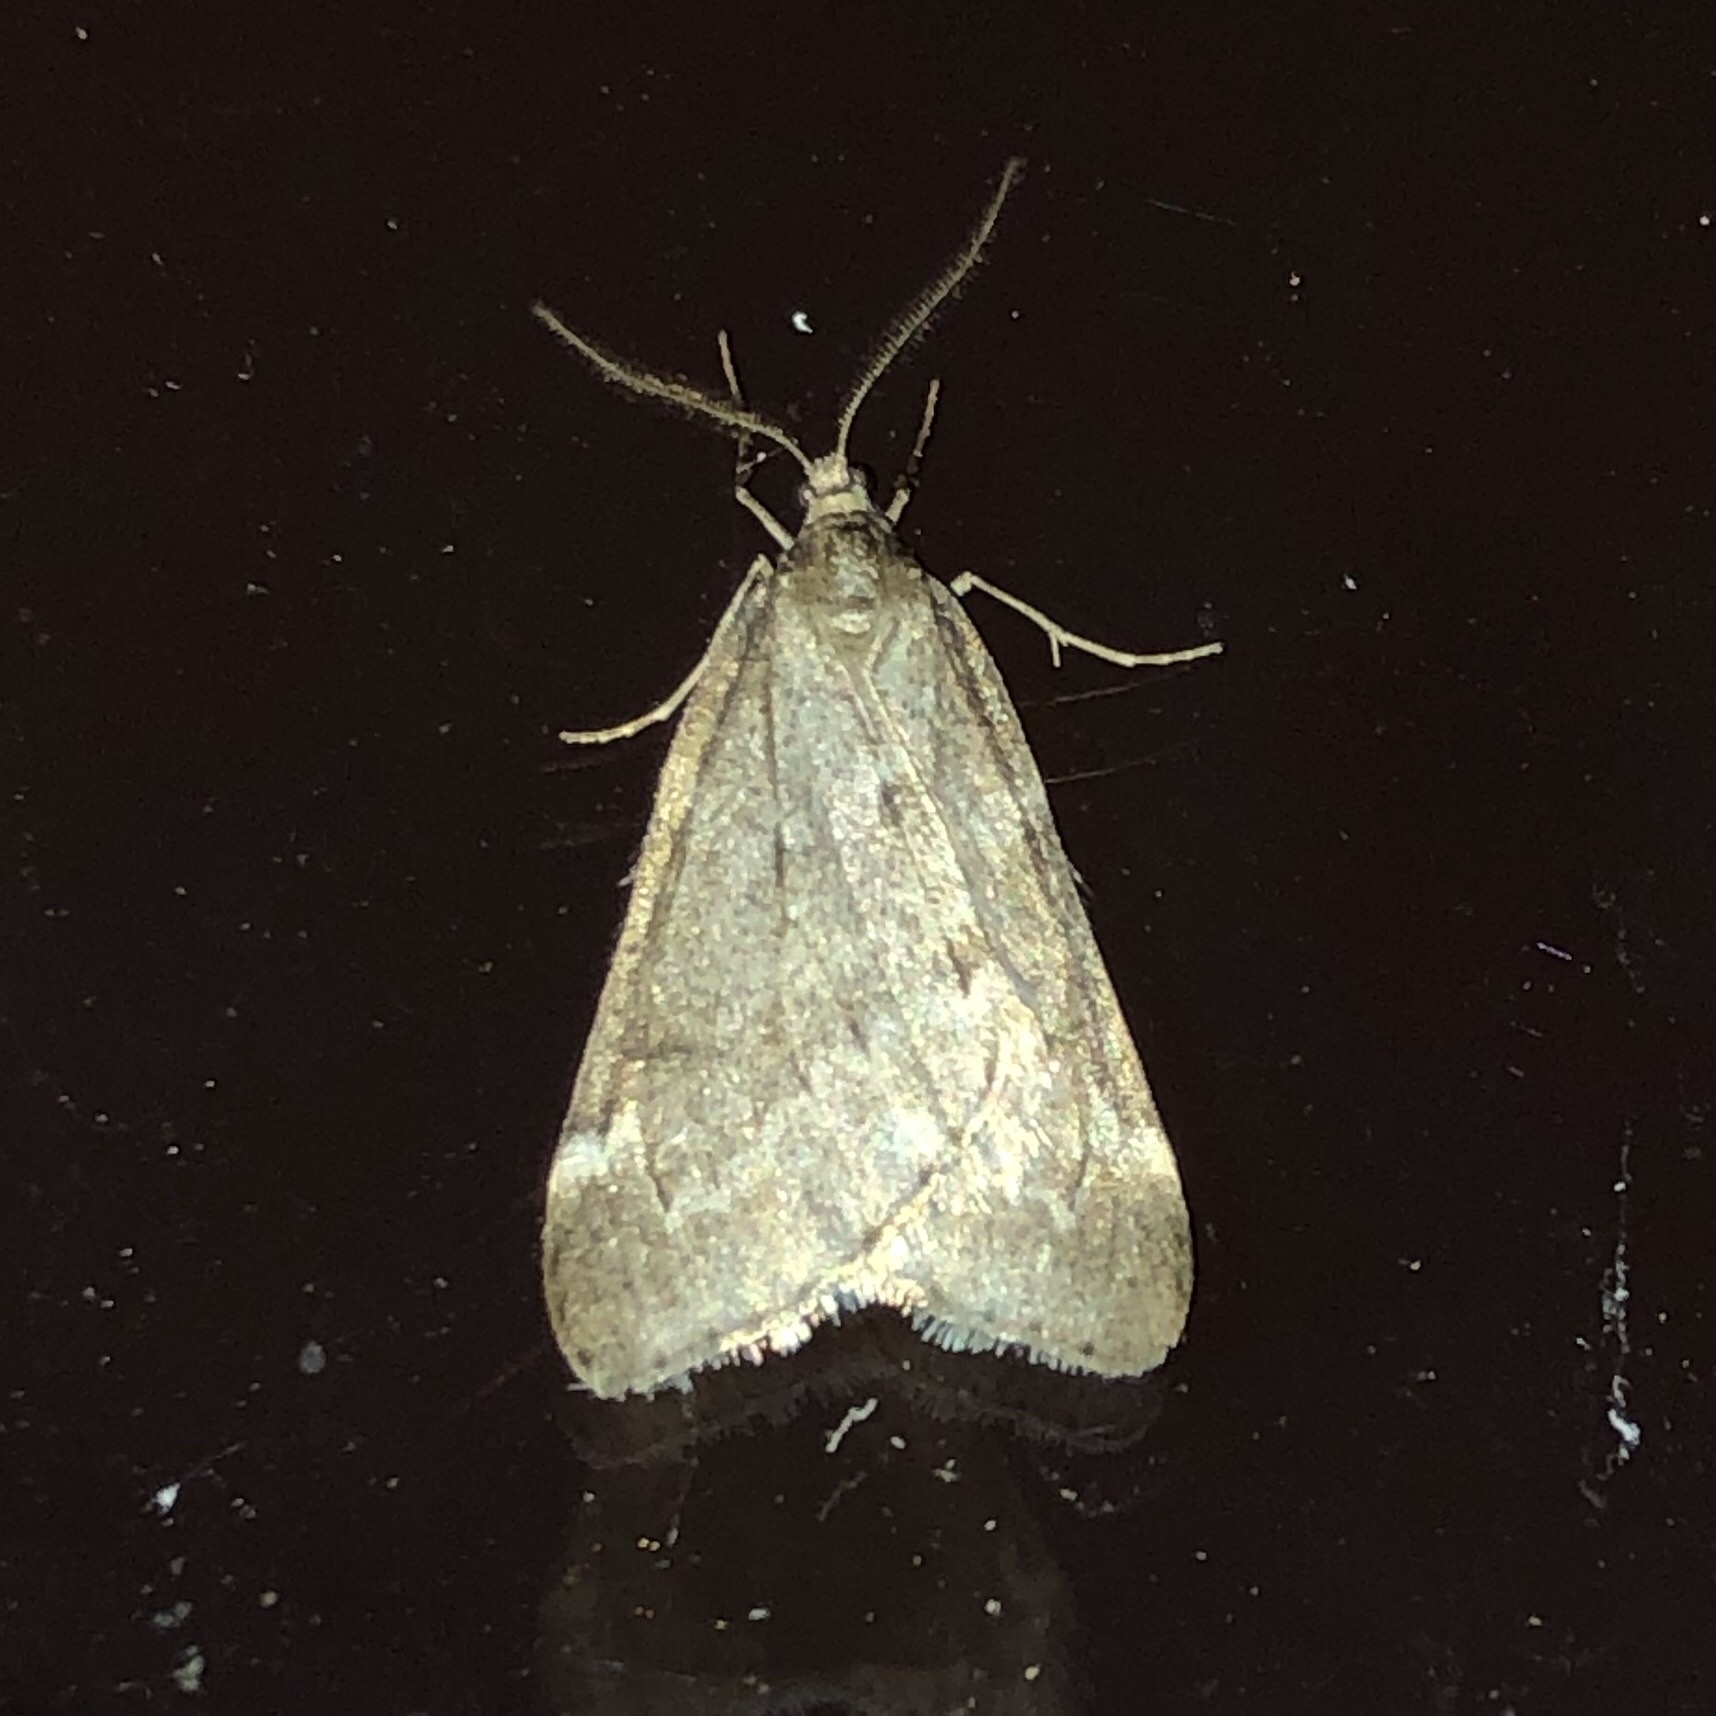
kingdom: Animalia
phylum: Arthropoda
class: Insecta
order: Lepidoptera
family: Geometridae
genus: Alsophila
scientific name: Alsophila pometaria
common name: Fall cankerworm
